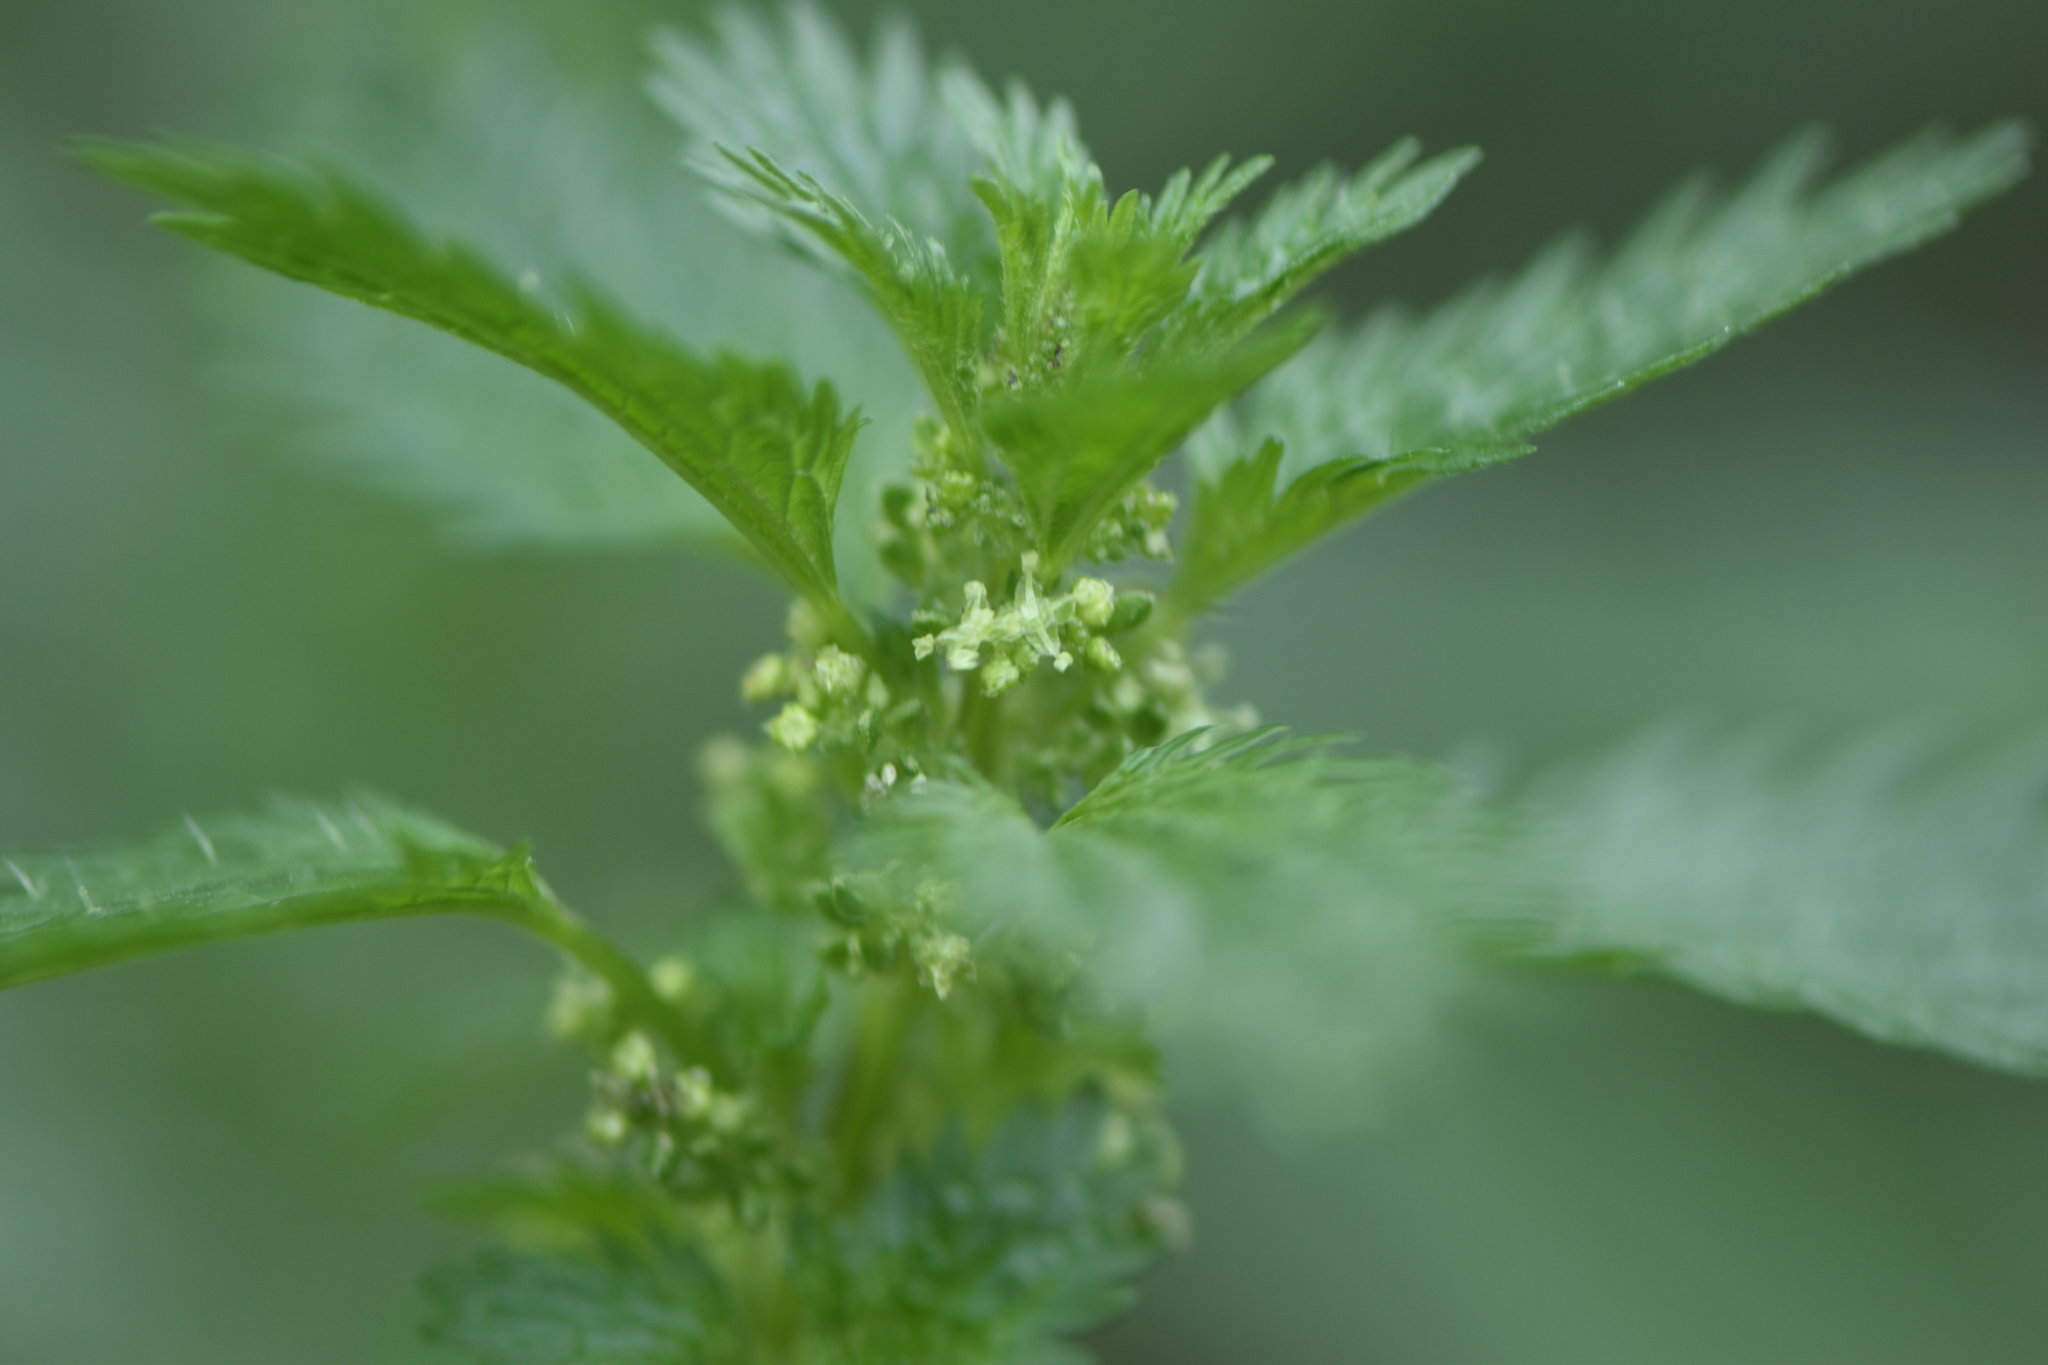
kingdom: Plantae
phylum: Tracheophyta
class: Magnoliopsida
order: Rosales
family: Urticaceae
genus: Urtica
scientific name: Urtica urens
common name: Dwarf nettle
